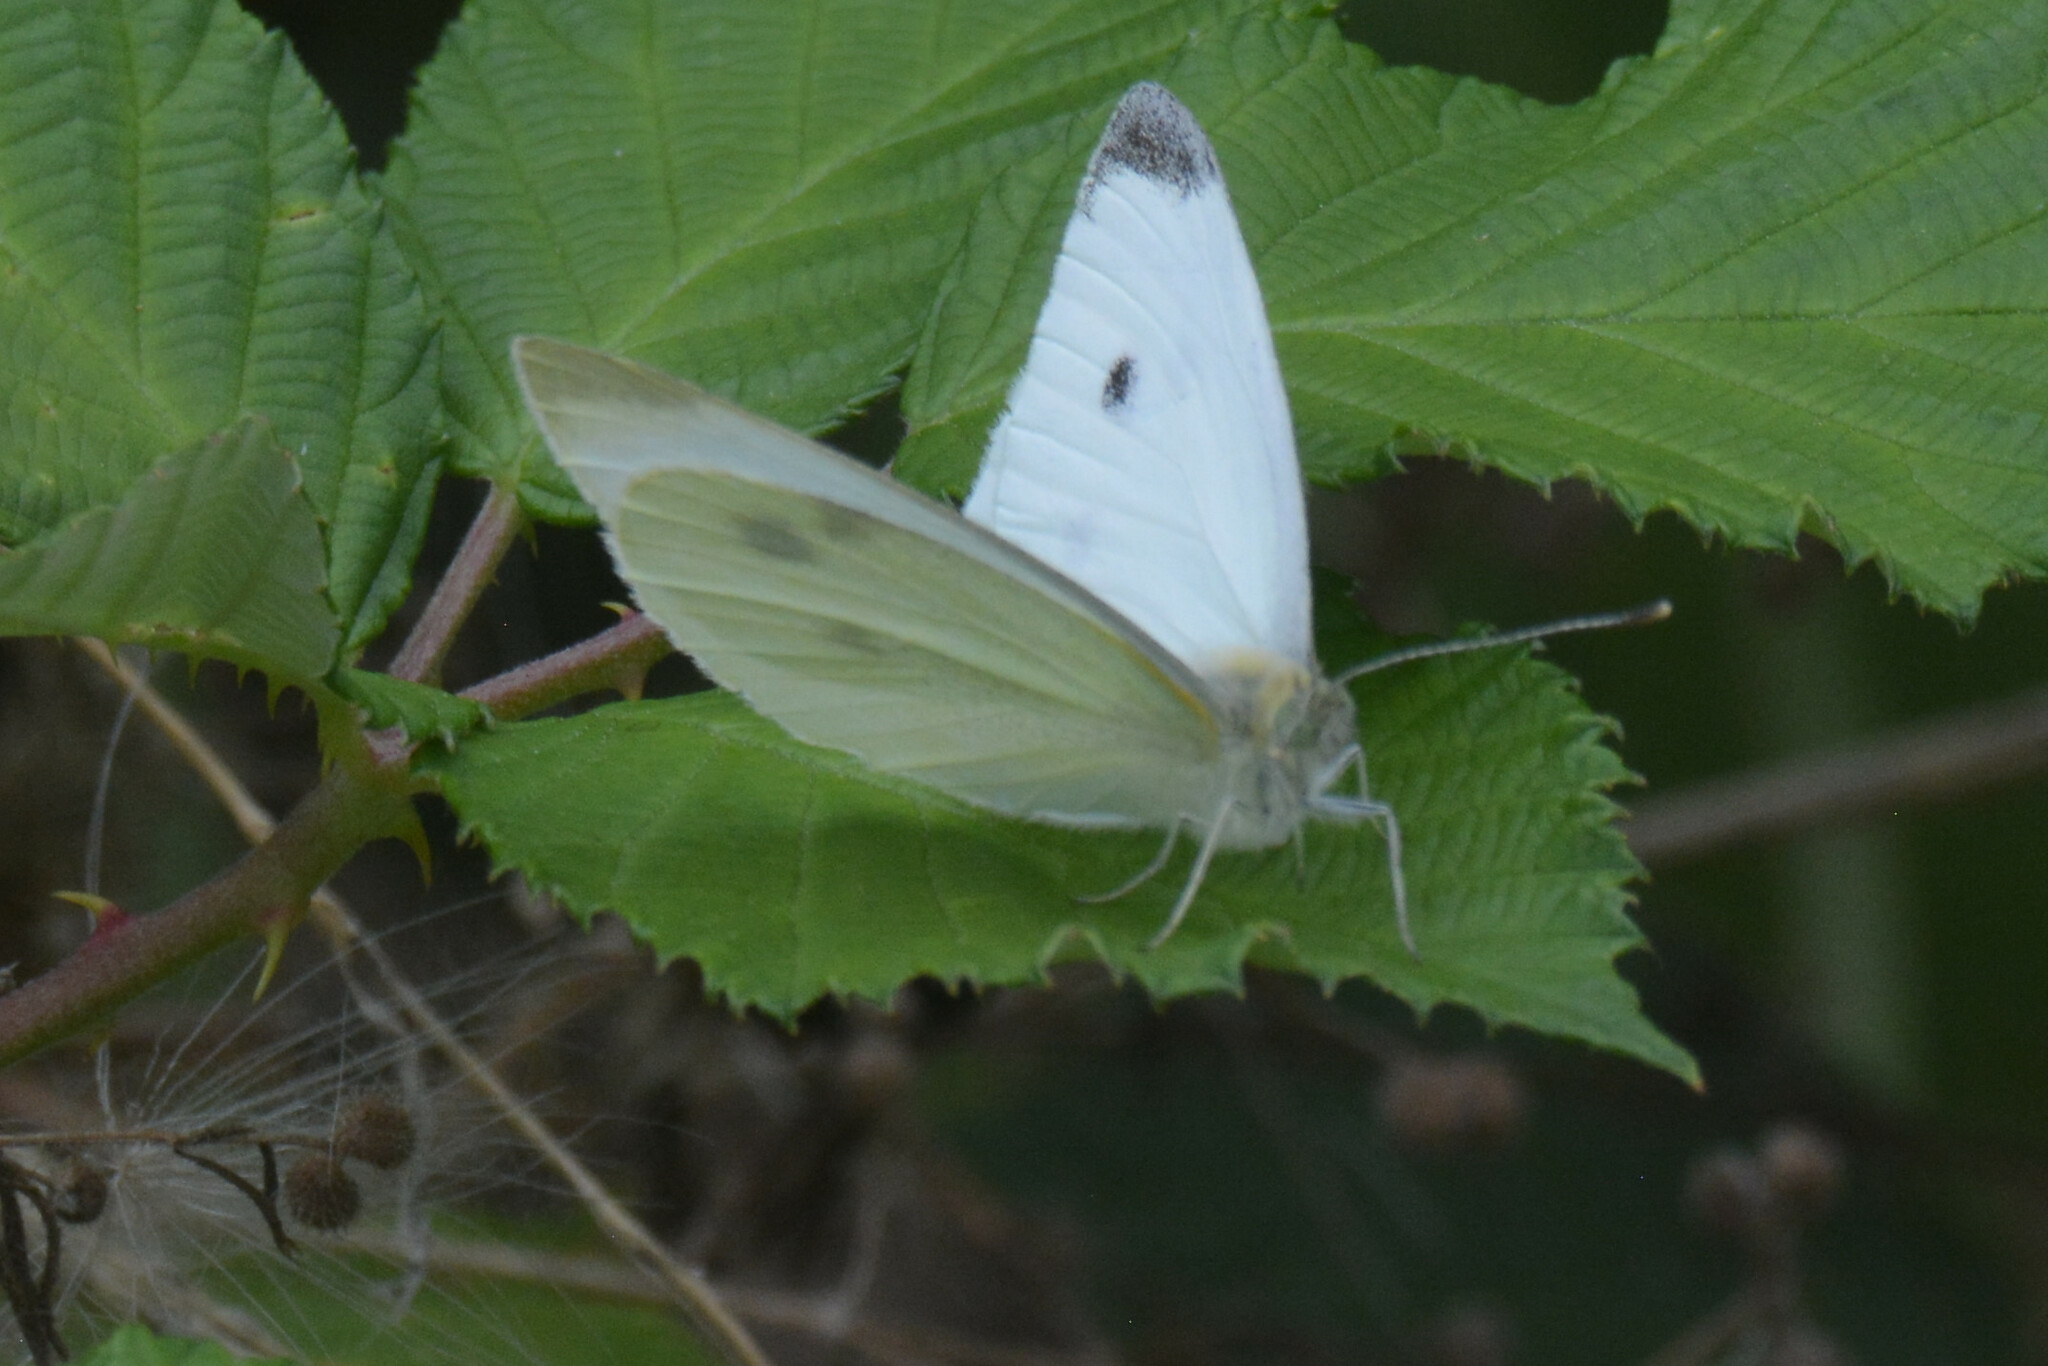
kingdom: Animalia
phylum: Arthropoda
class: Insecta
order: Lepidoptera
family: Pieridae
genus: Pieris
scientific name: Pieris rapae
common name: Small white
